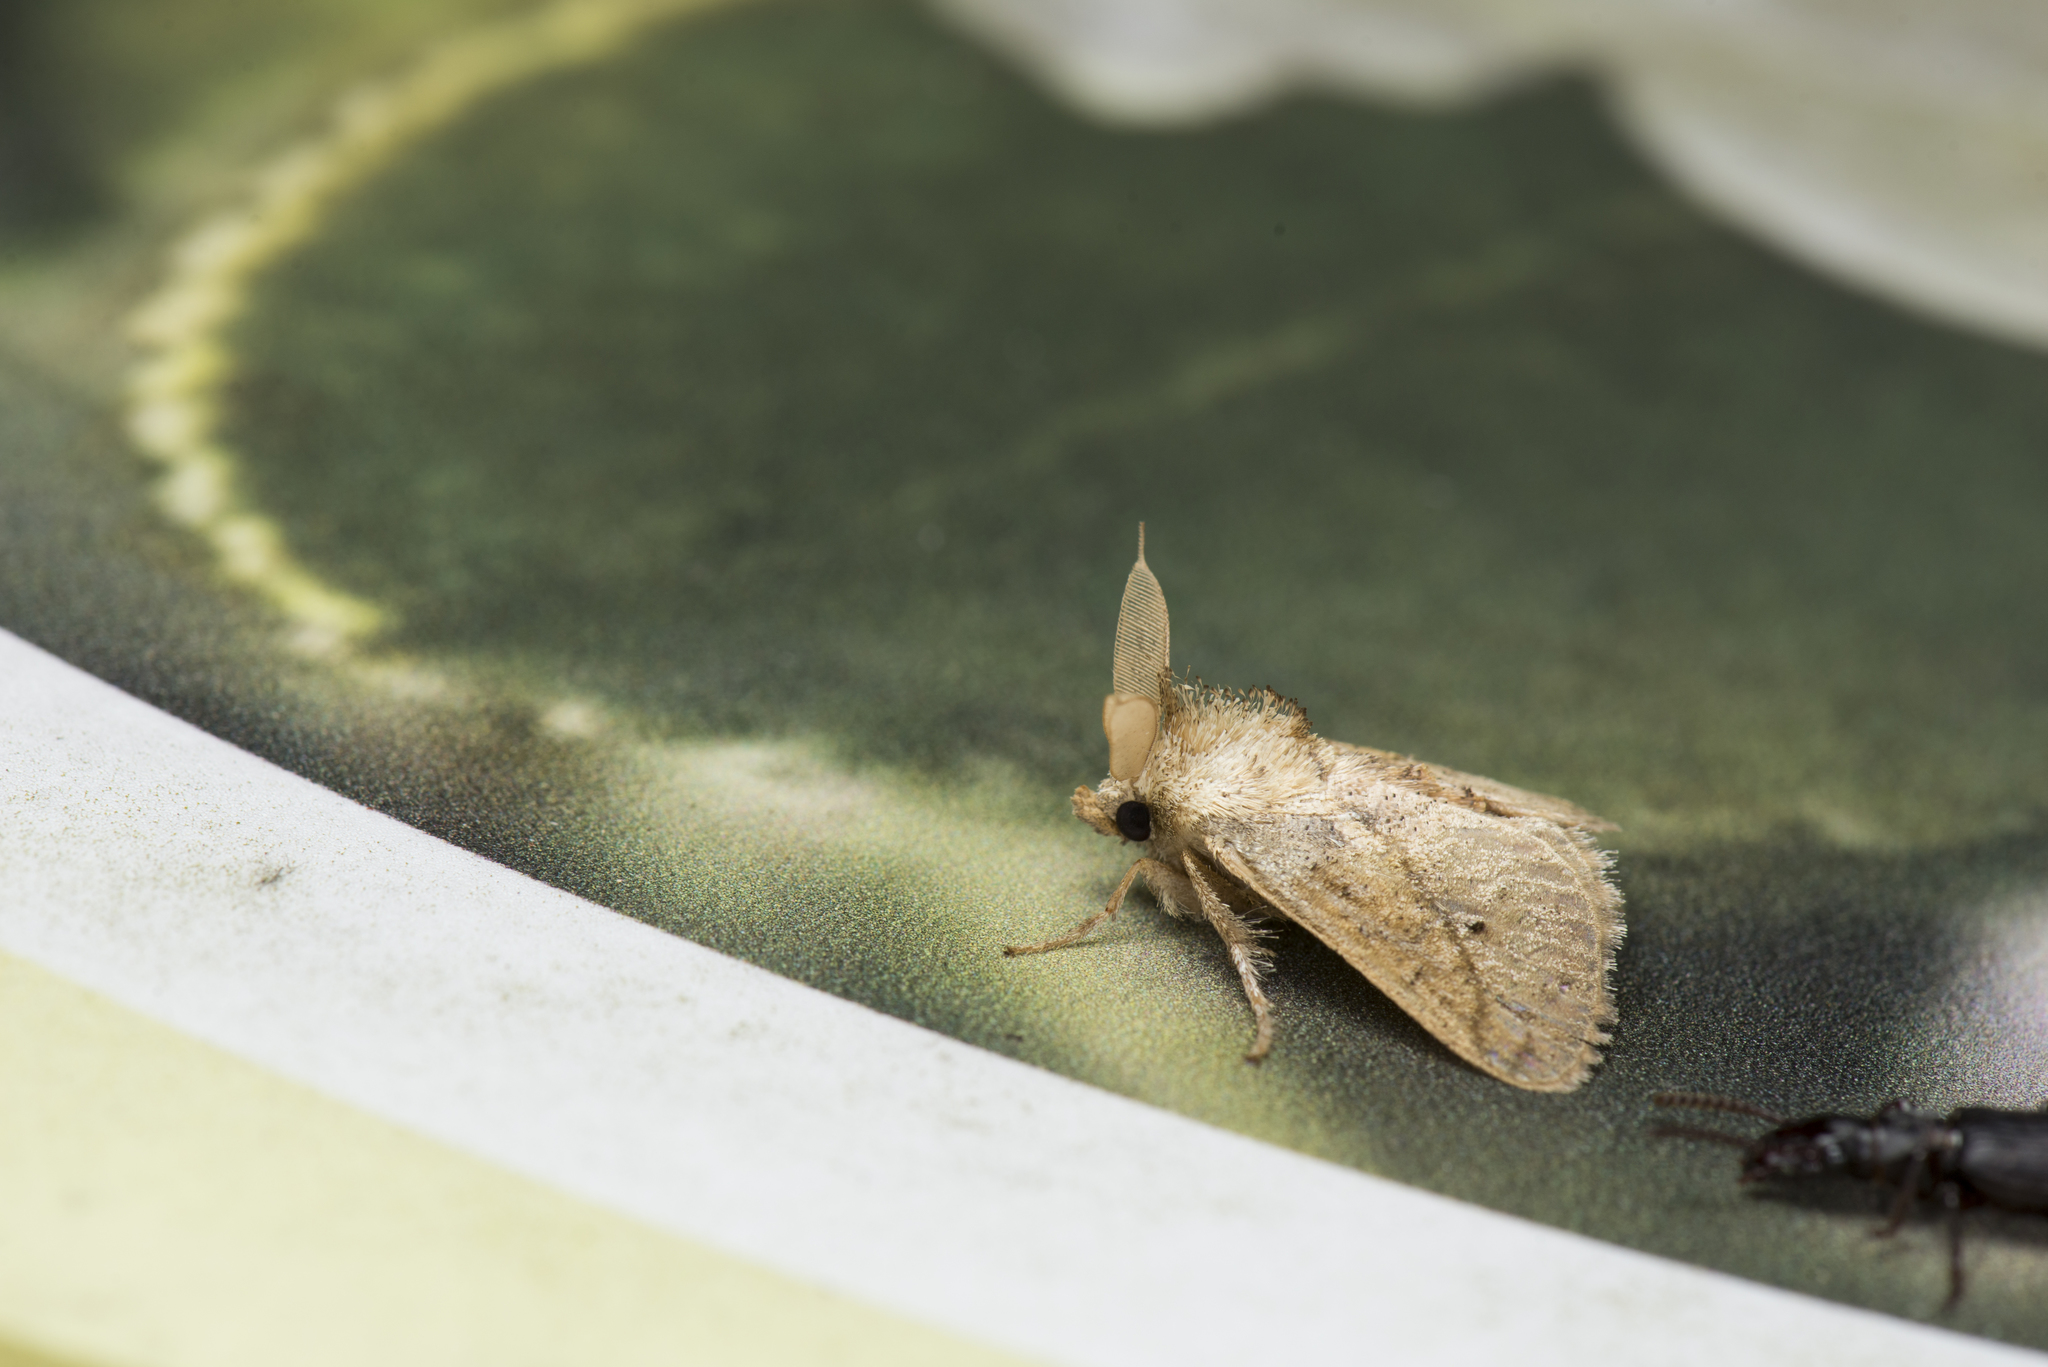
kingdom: Animalia
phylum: Arthropoda
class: Insecta
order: Lepidoptera
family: Limacodidae
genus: Susica
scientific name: Susica sinensis
